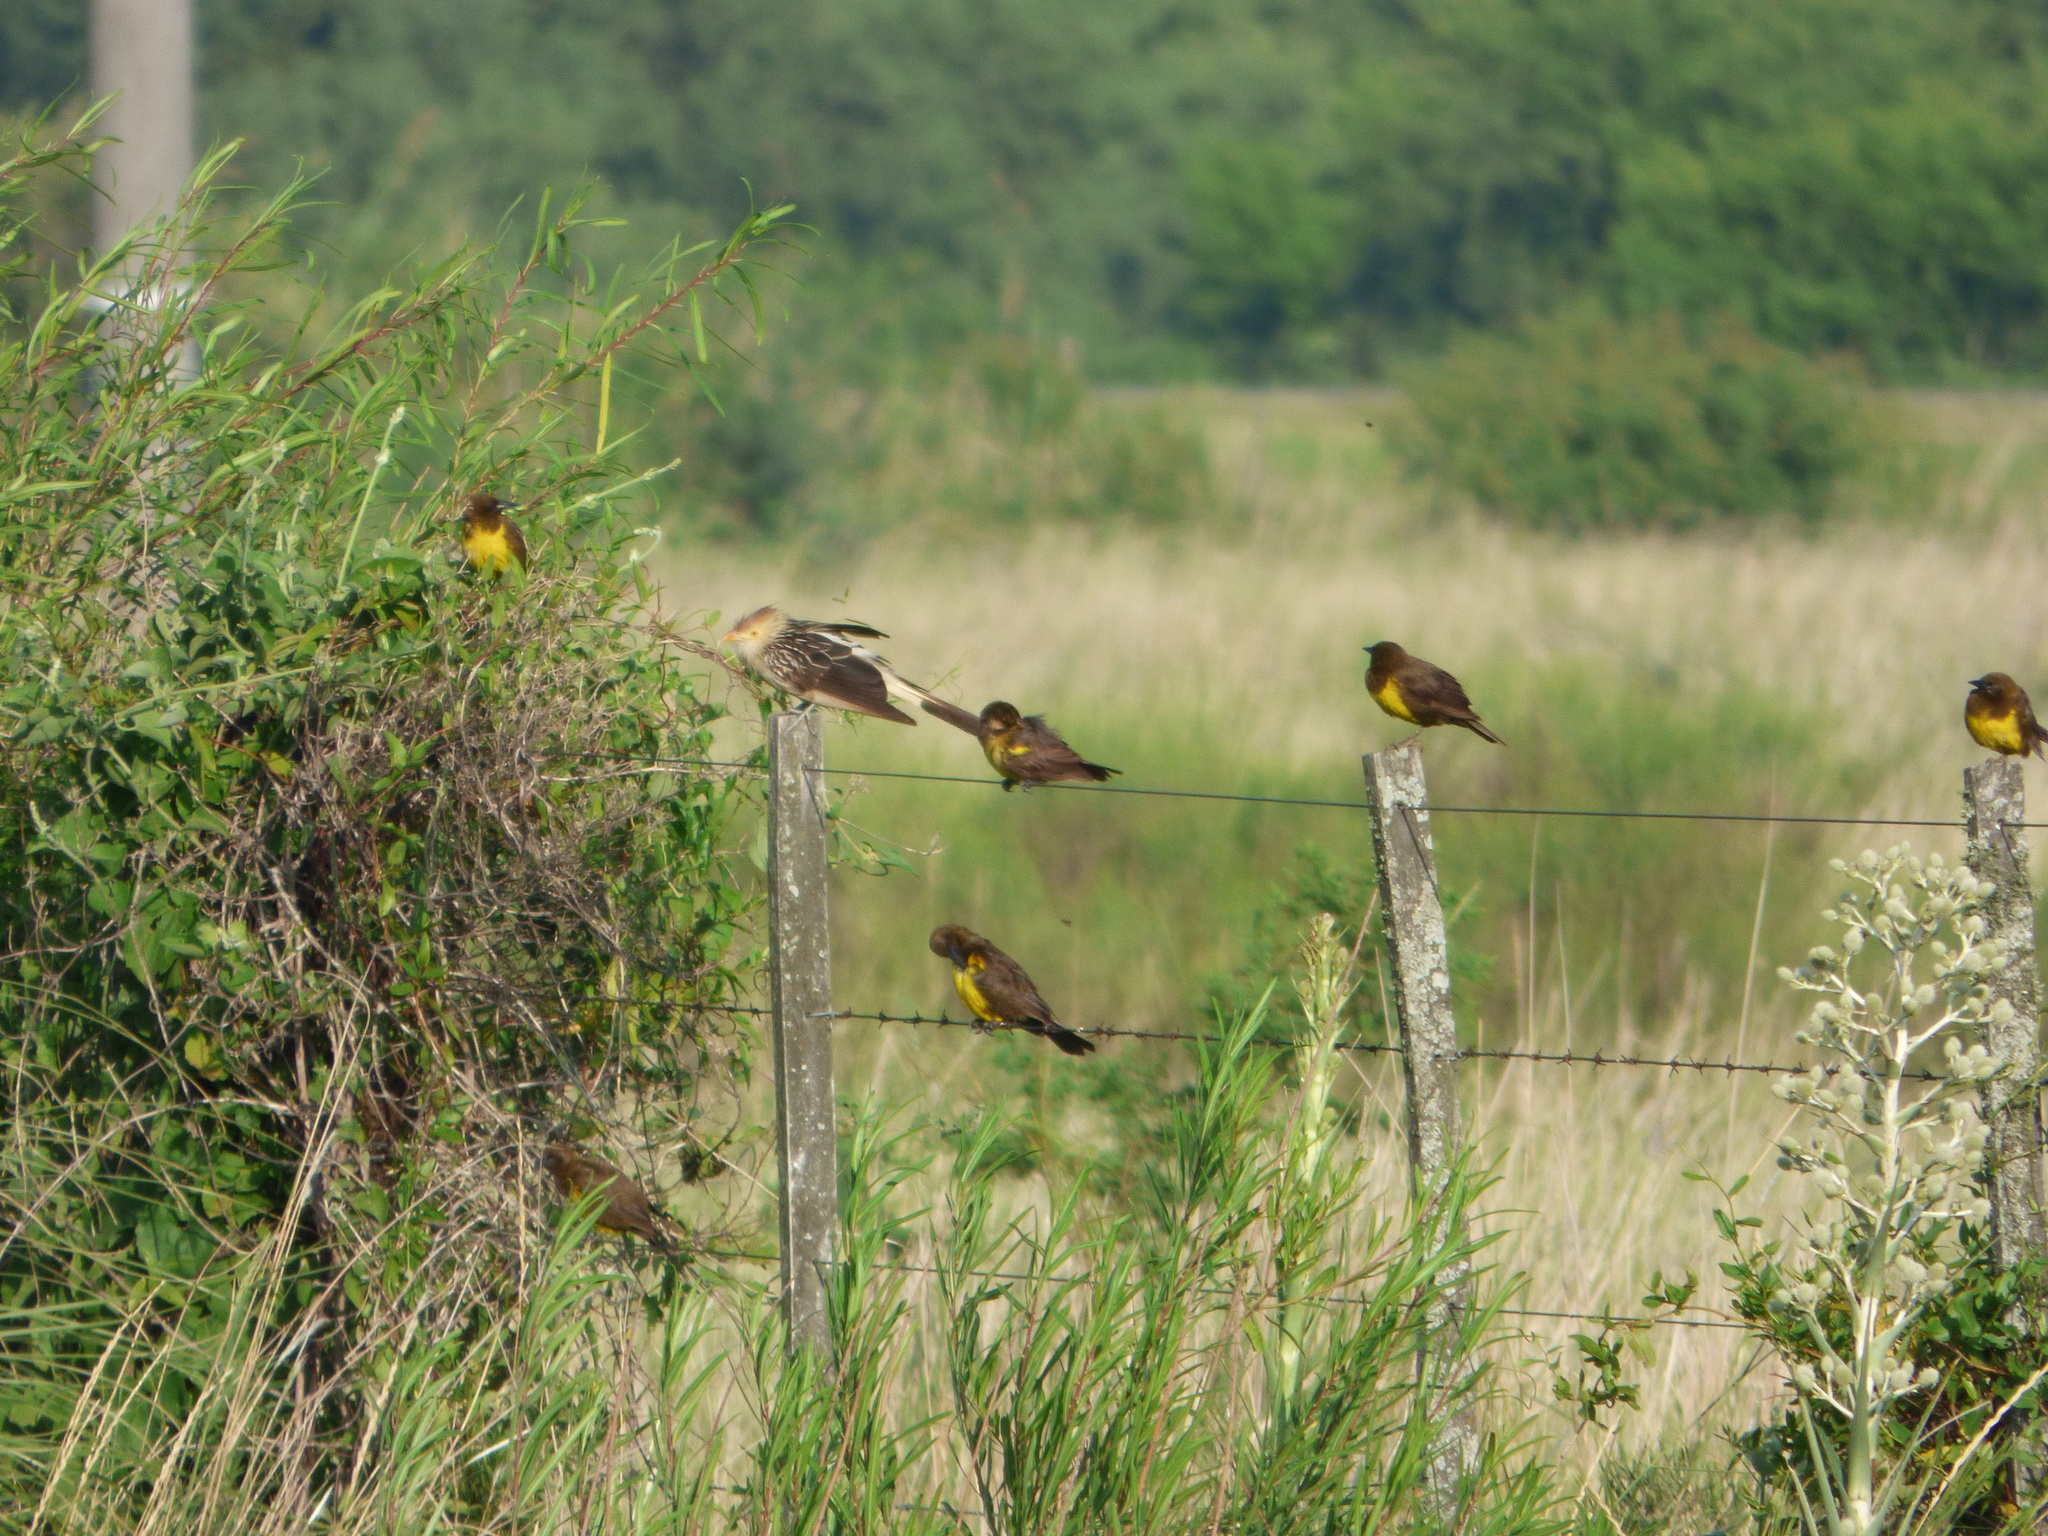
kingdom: Animalia
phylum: Chordata
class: Aves
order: Passeriformes
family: Icteridae
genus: Pseudoleistes
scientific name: Pseudoleistes virescens
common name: Brown-and-yellow marshbird
